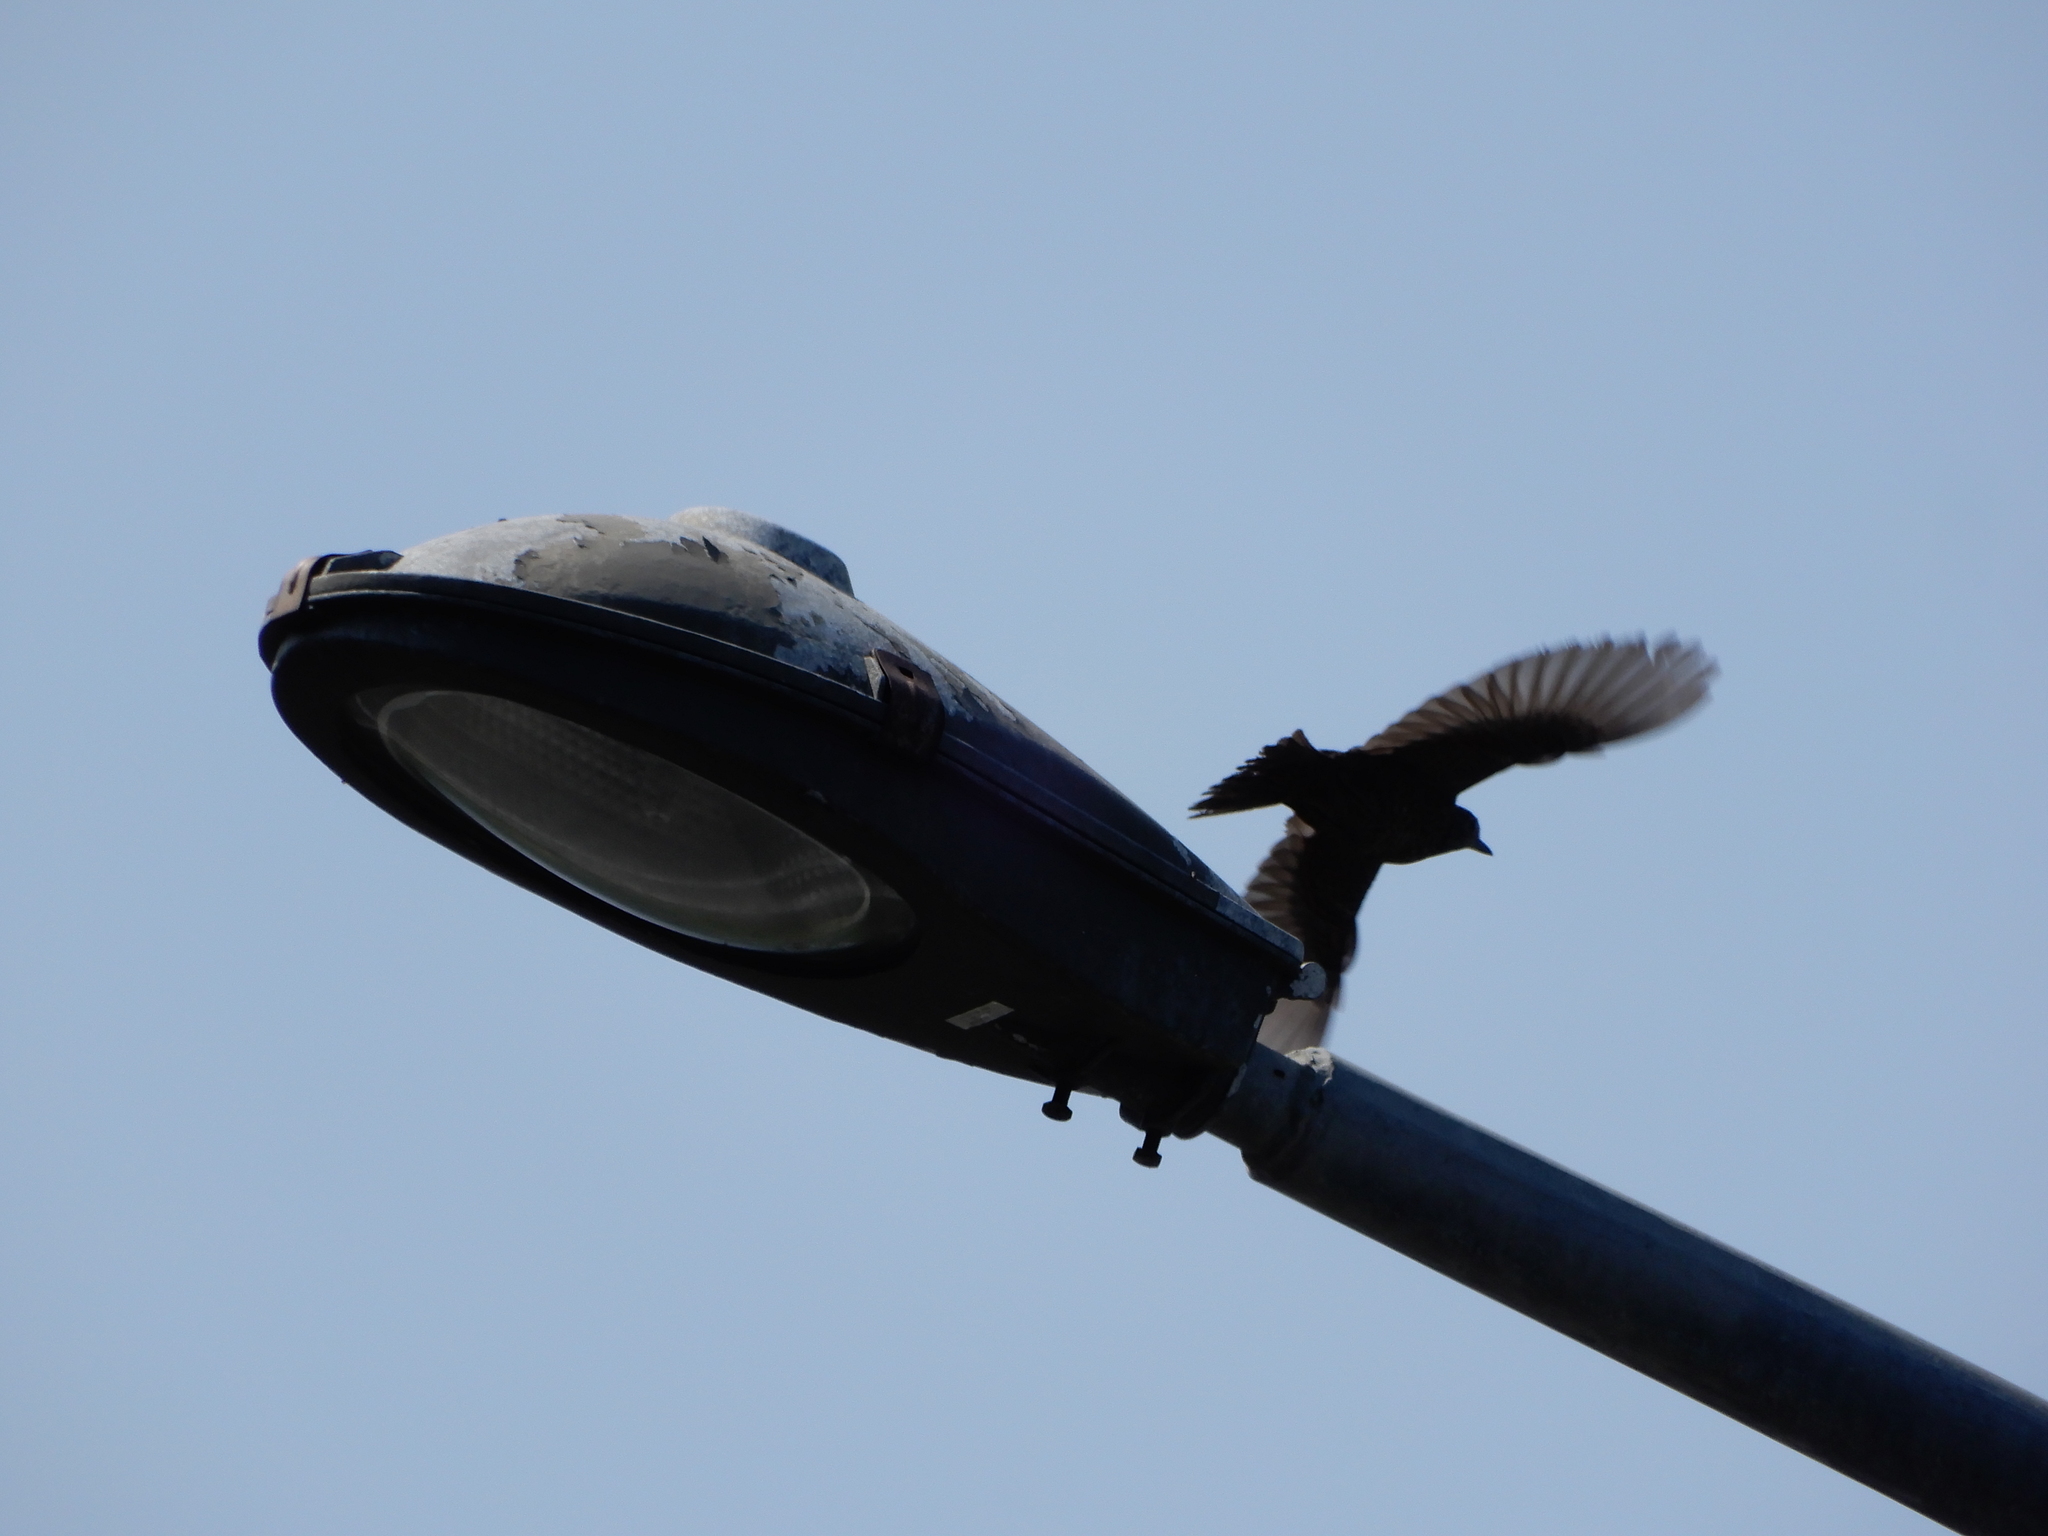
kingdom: Animalia
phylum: Chordata
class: Aves
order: Passeriformes
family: Muscicapidae
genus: Monticola
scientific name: Monticola solitarius
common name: Blue rock thrush
